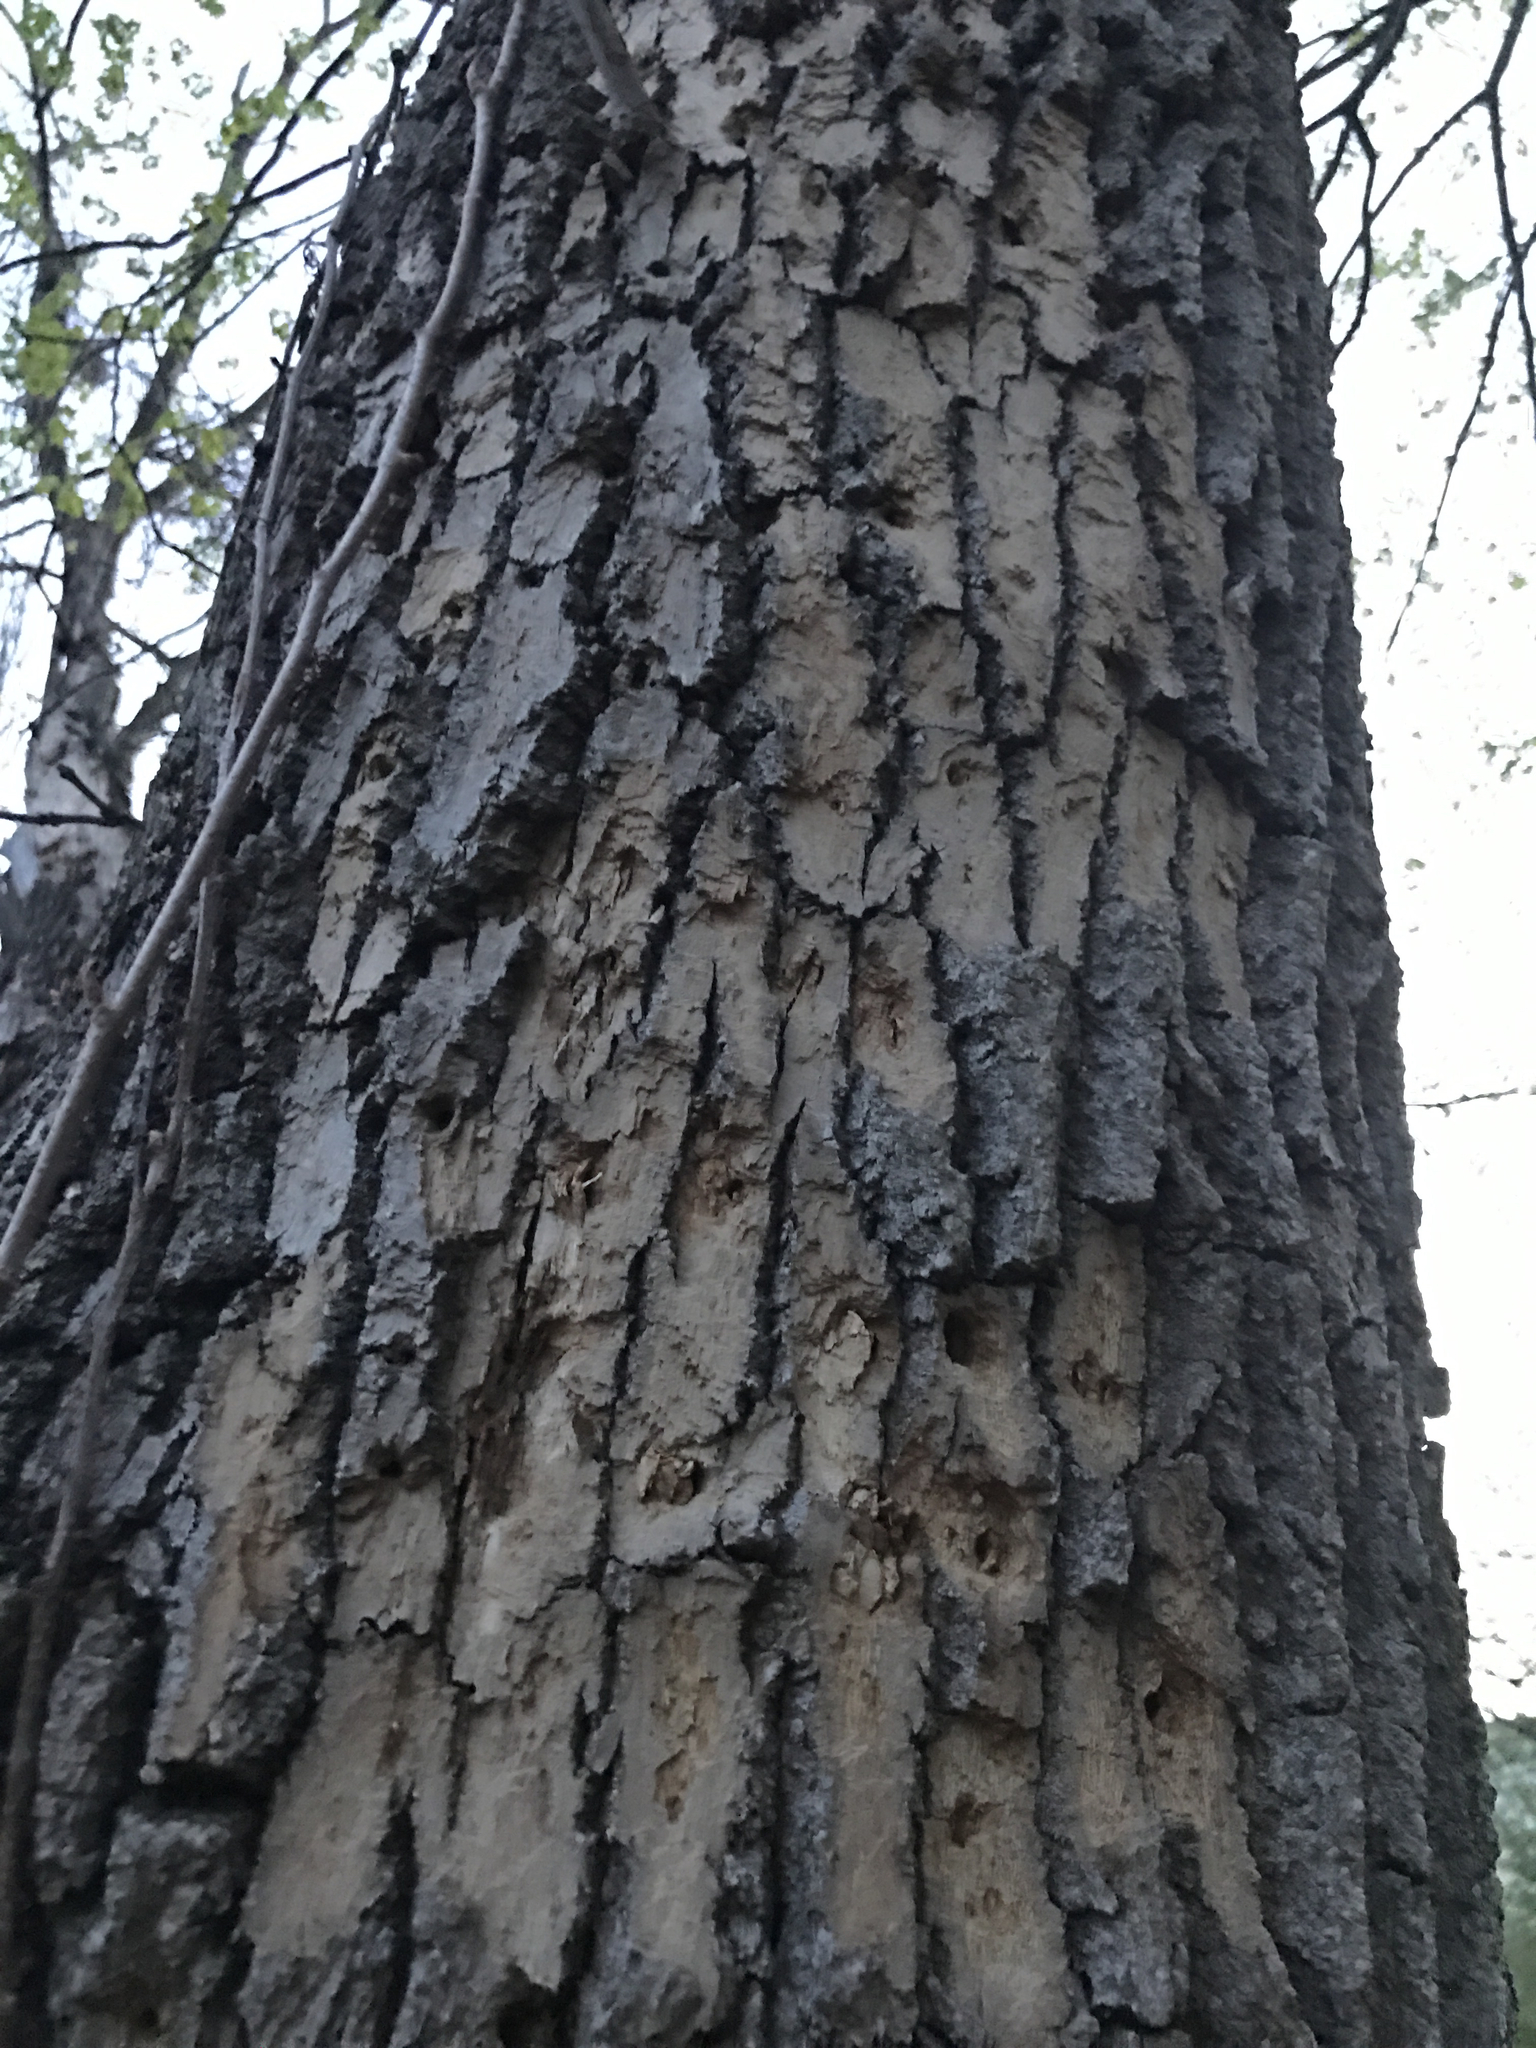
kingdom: Animalia
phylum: Arthropoda
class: Insecta
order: Coleoptera
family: Buprestidae
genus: Agrilus
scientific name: Agrilus planipennis
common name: Emerald ash borer
